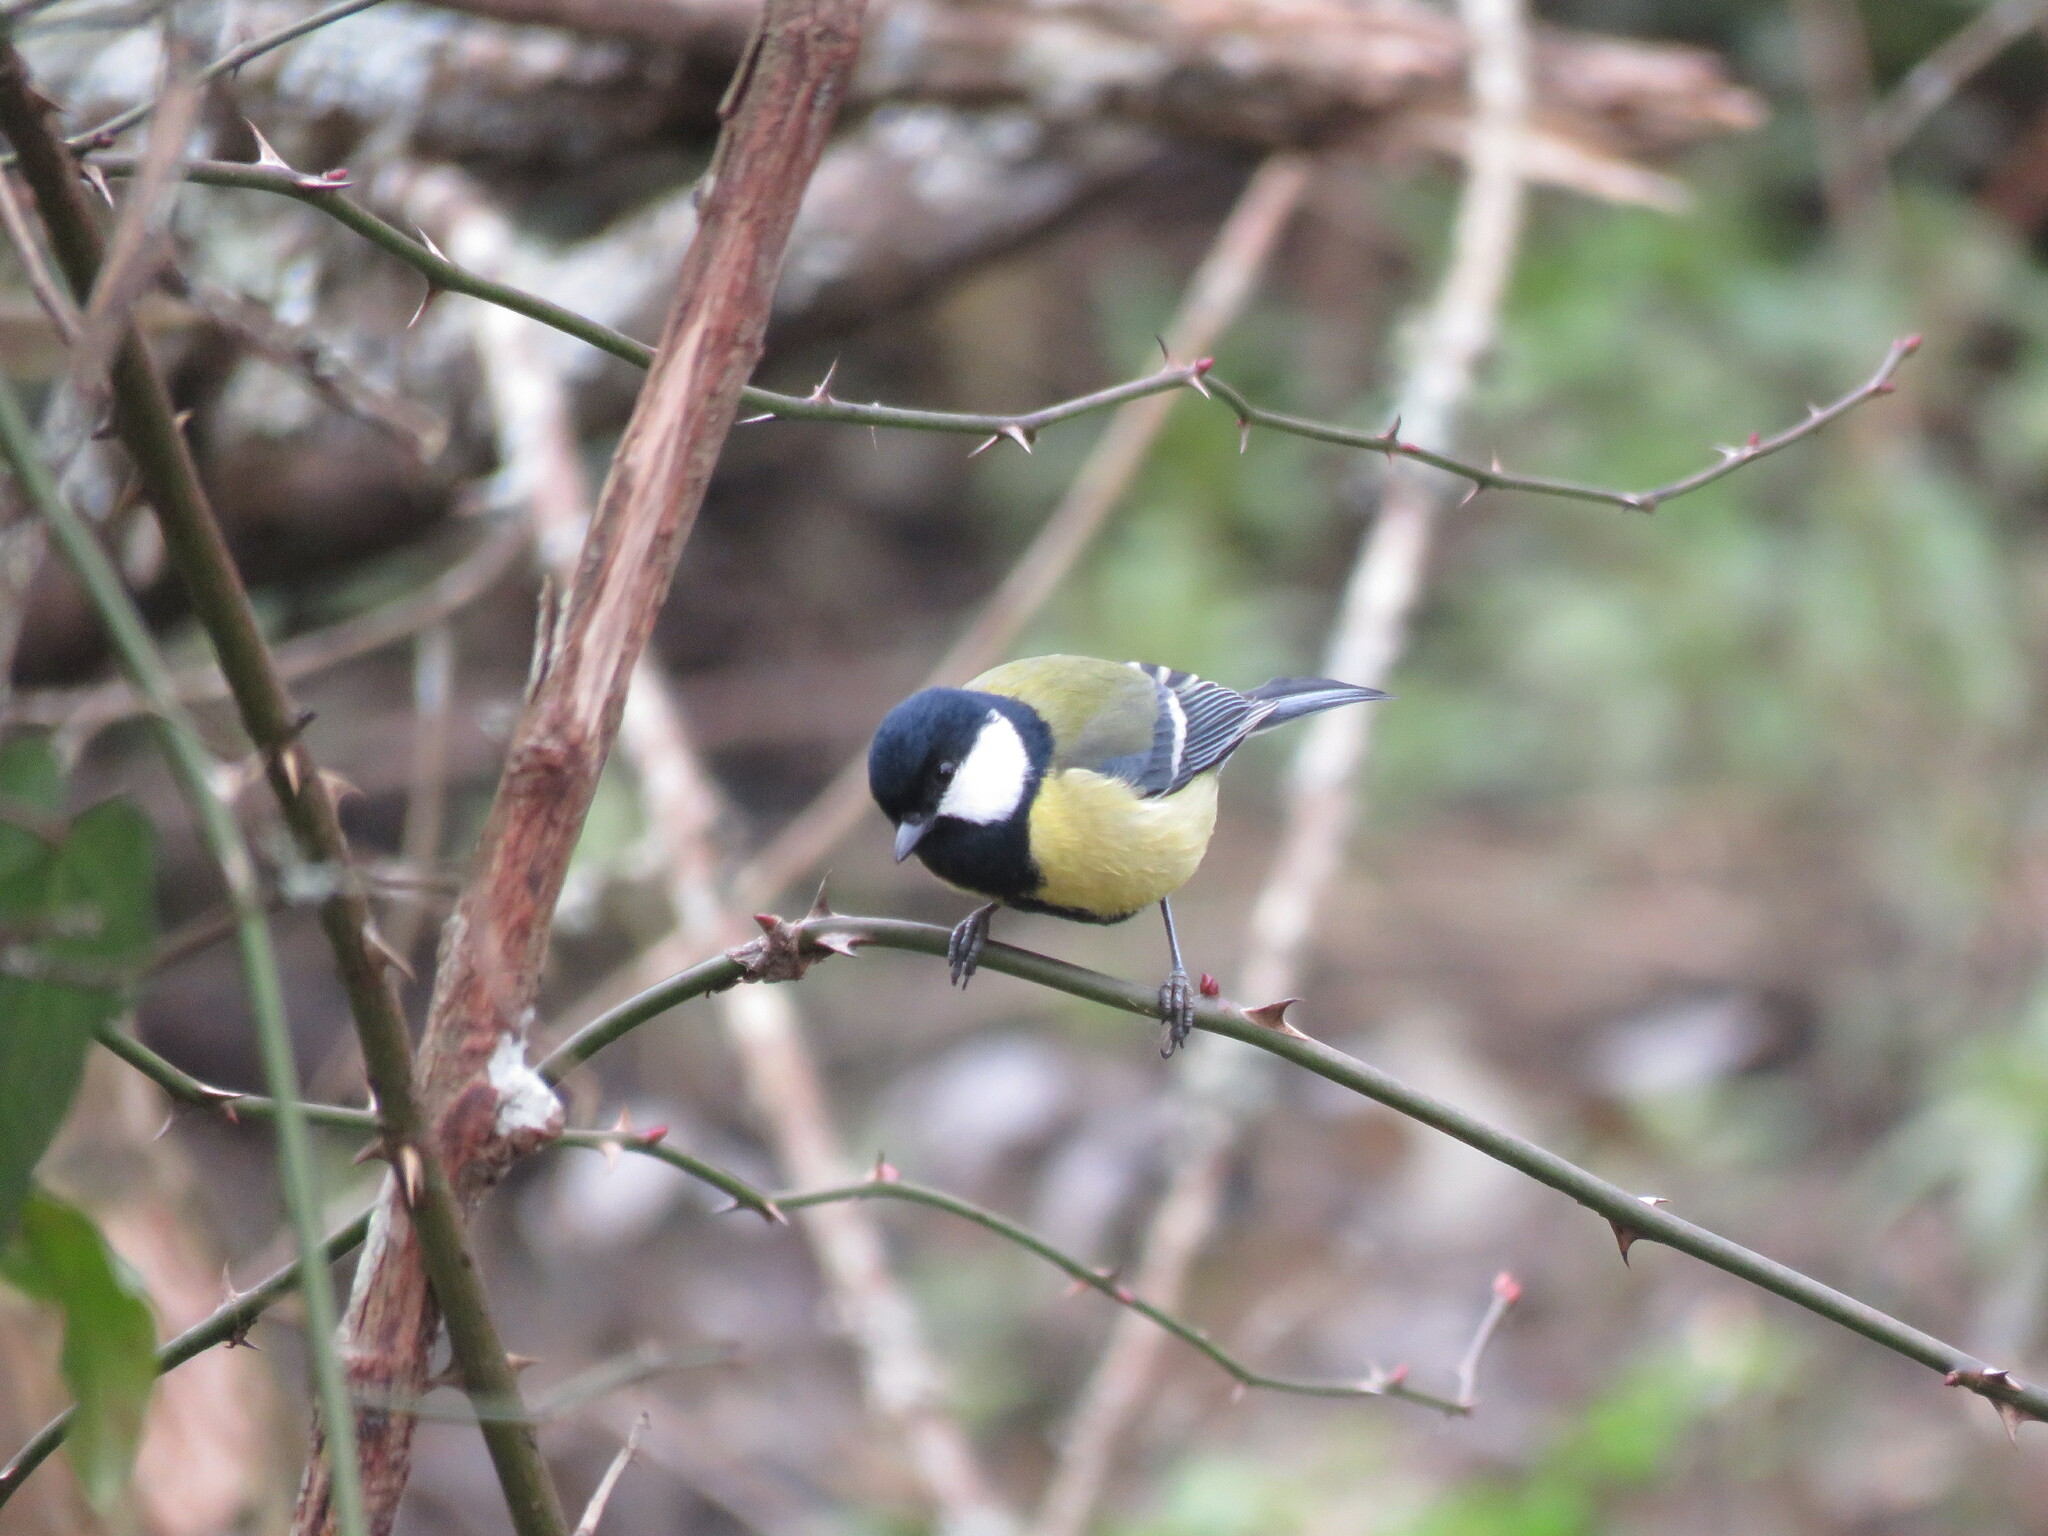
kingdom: Animalia
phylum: Chordata
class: Aves
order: Passeriformes
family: Paridae
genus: Parus
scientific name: Parus major
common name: Great tit
